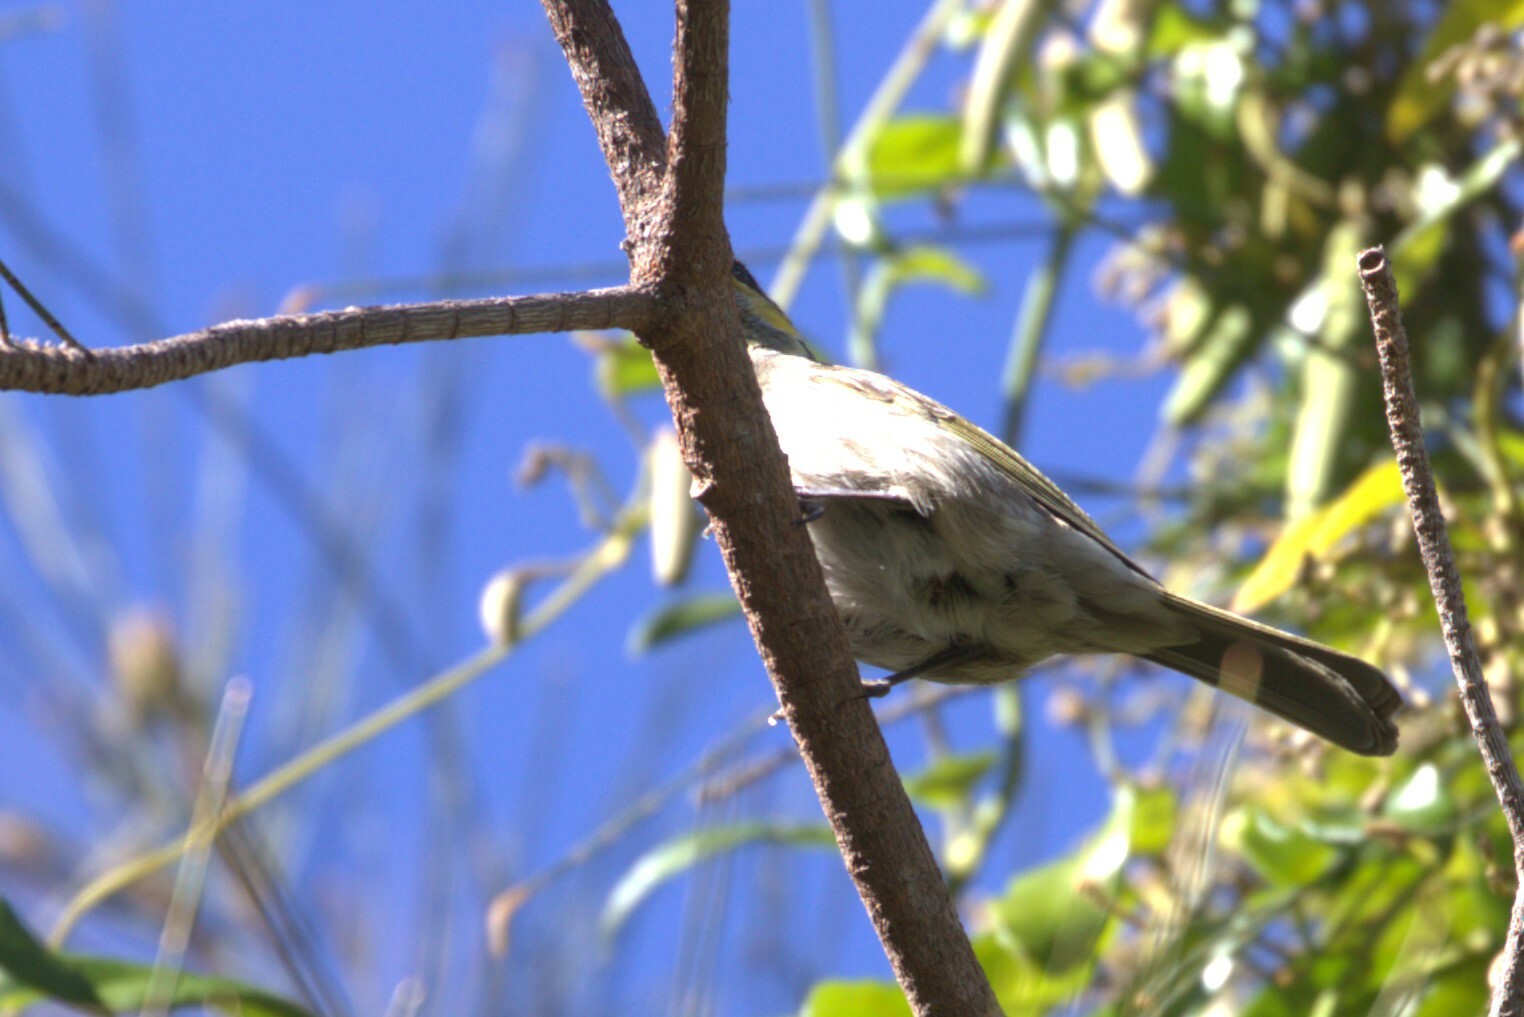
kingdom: Animalia
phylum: Chordata
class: Aves
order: Passeriformes
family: Meliphagidae
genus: Gavicalis
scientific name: Gavicalis fasciogularis
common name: Mangrove honeyeater
